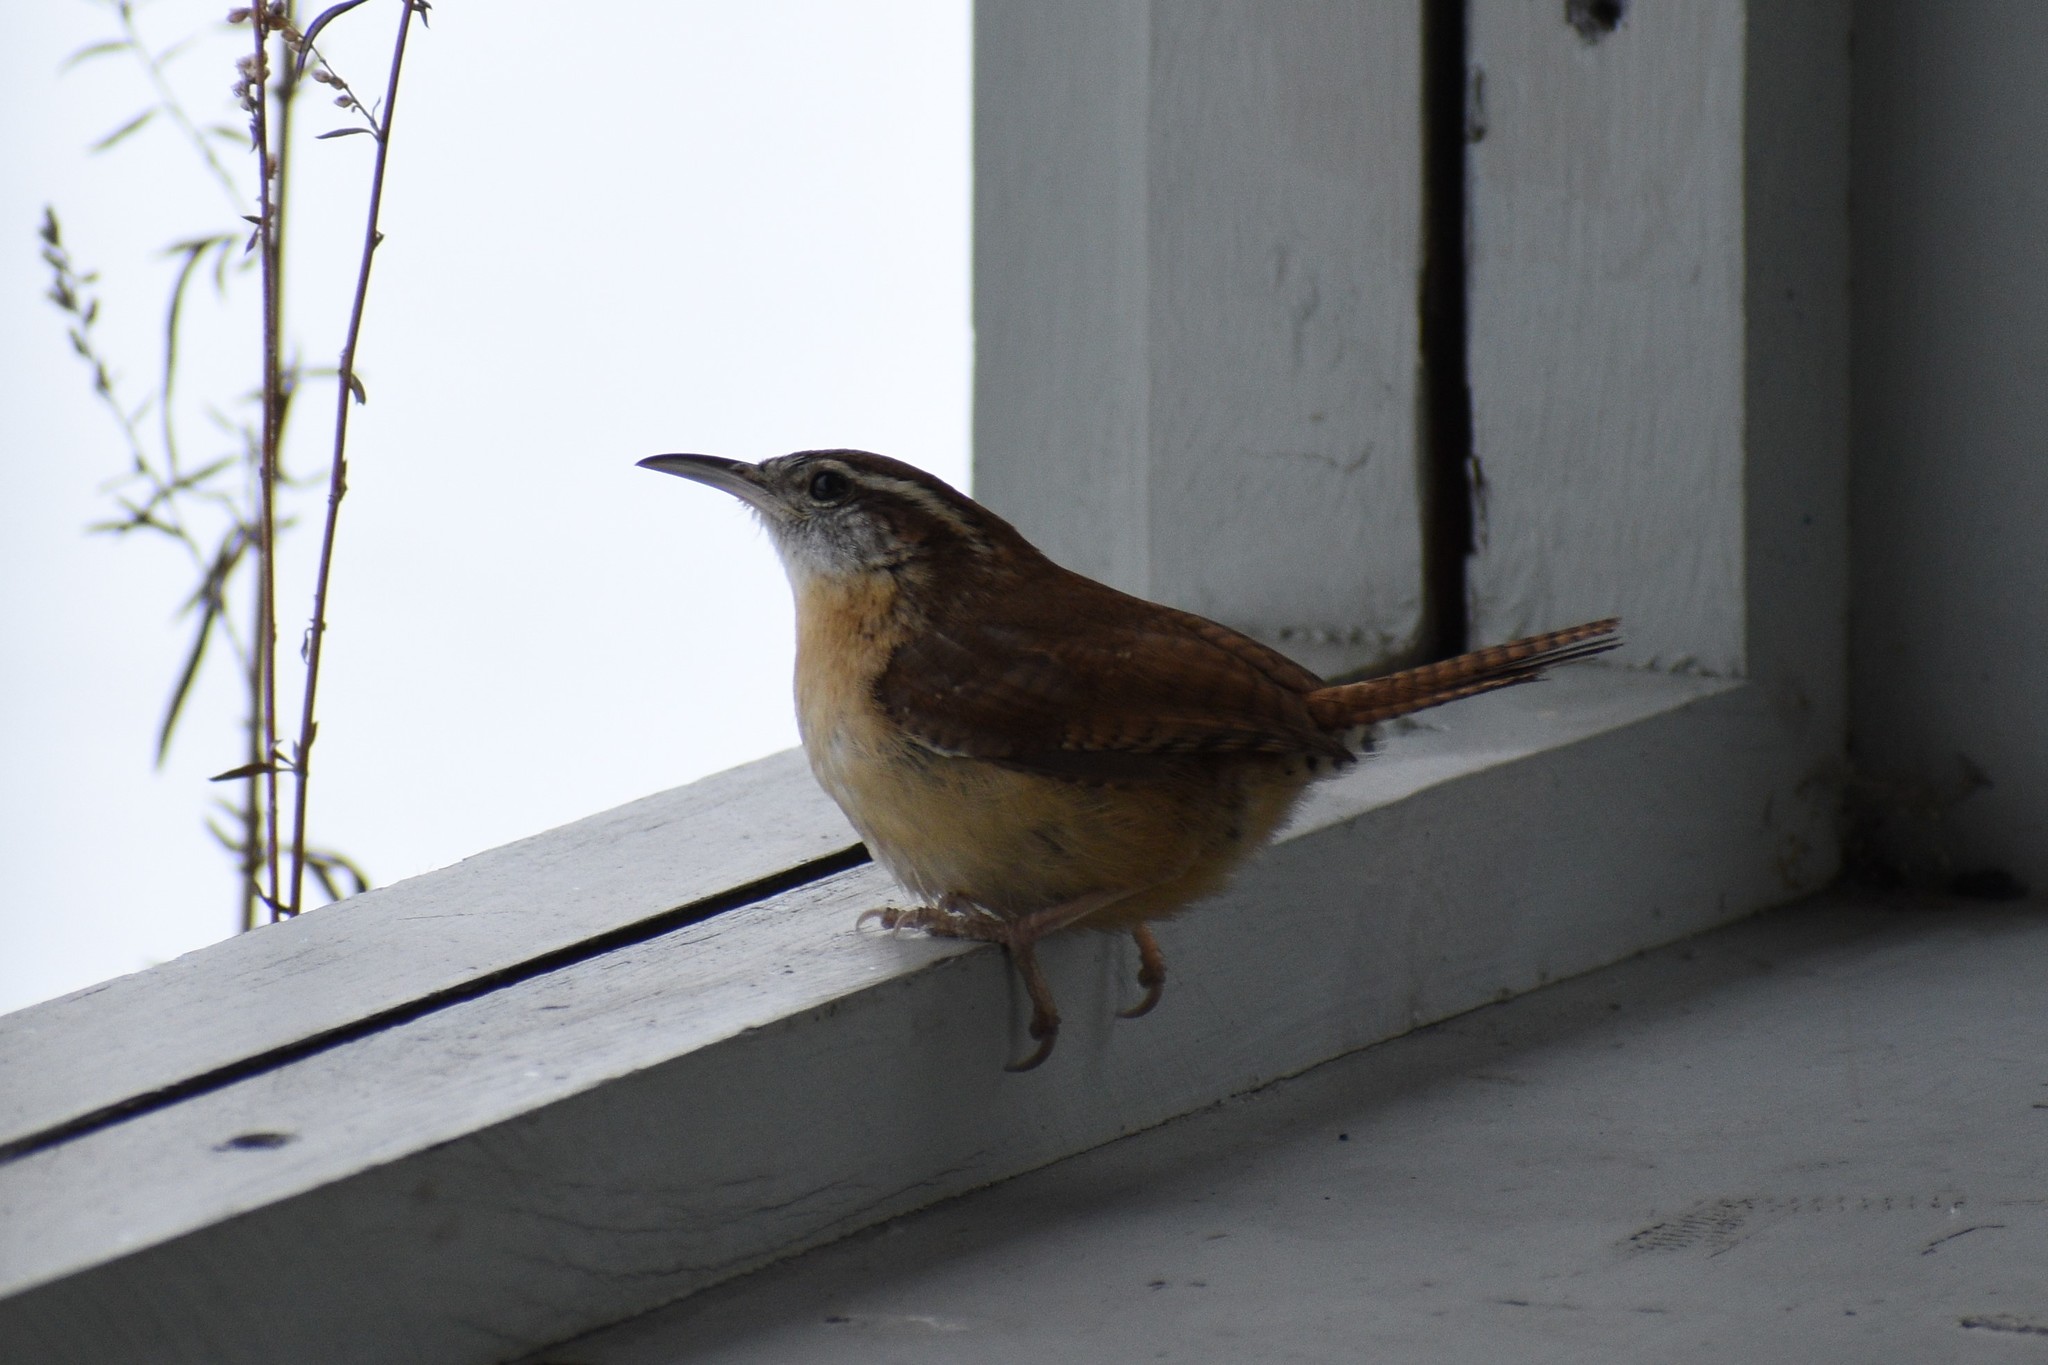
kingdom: Animalia
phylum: Chordata
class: Aves
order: Passeriformes
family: Troglodytidae
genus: Thryothorus
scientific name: Thryothorus ludovicianus
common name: Carolina wren
